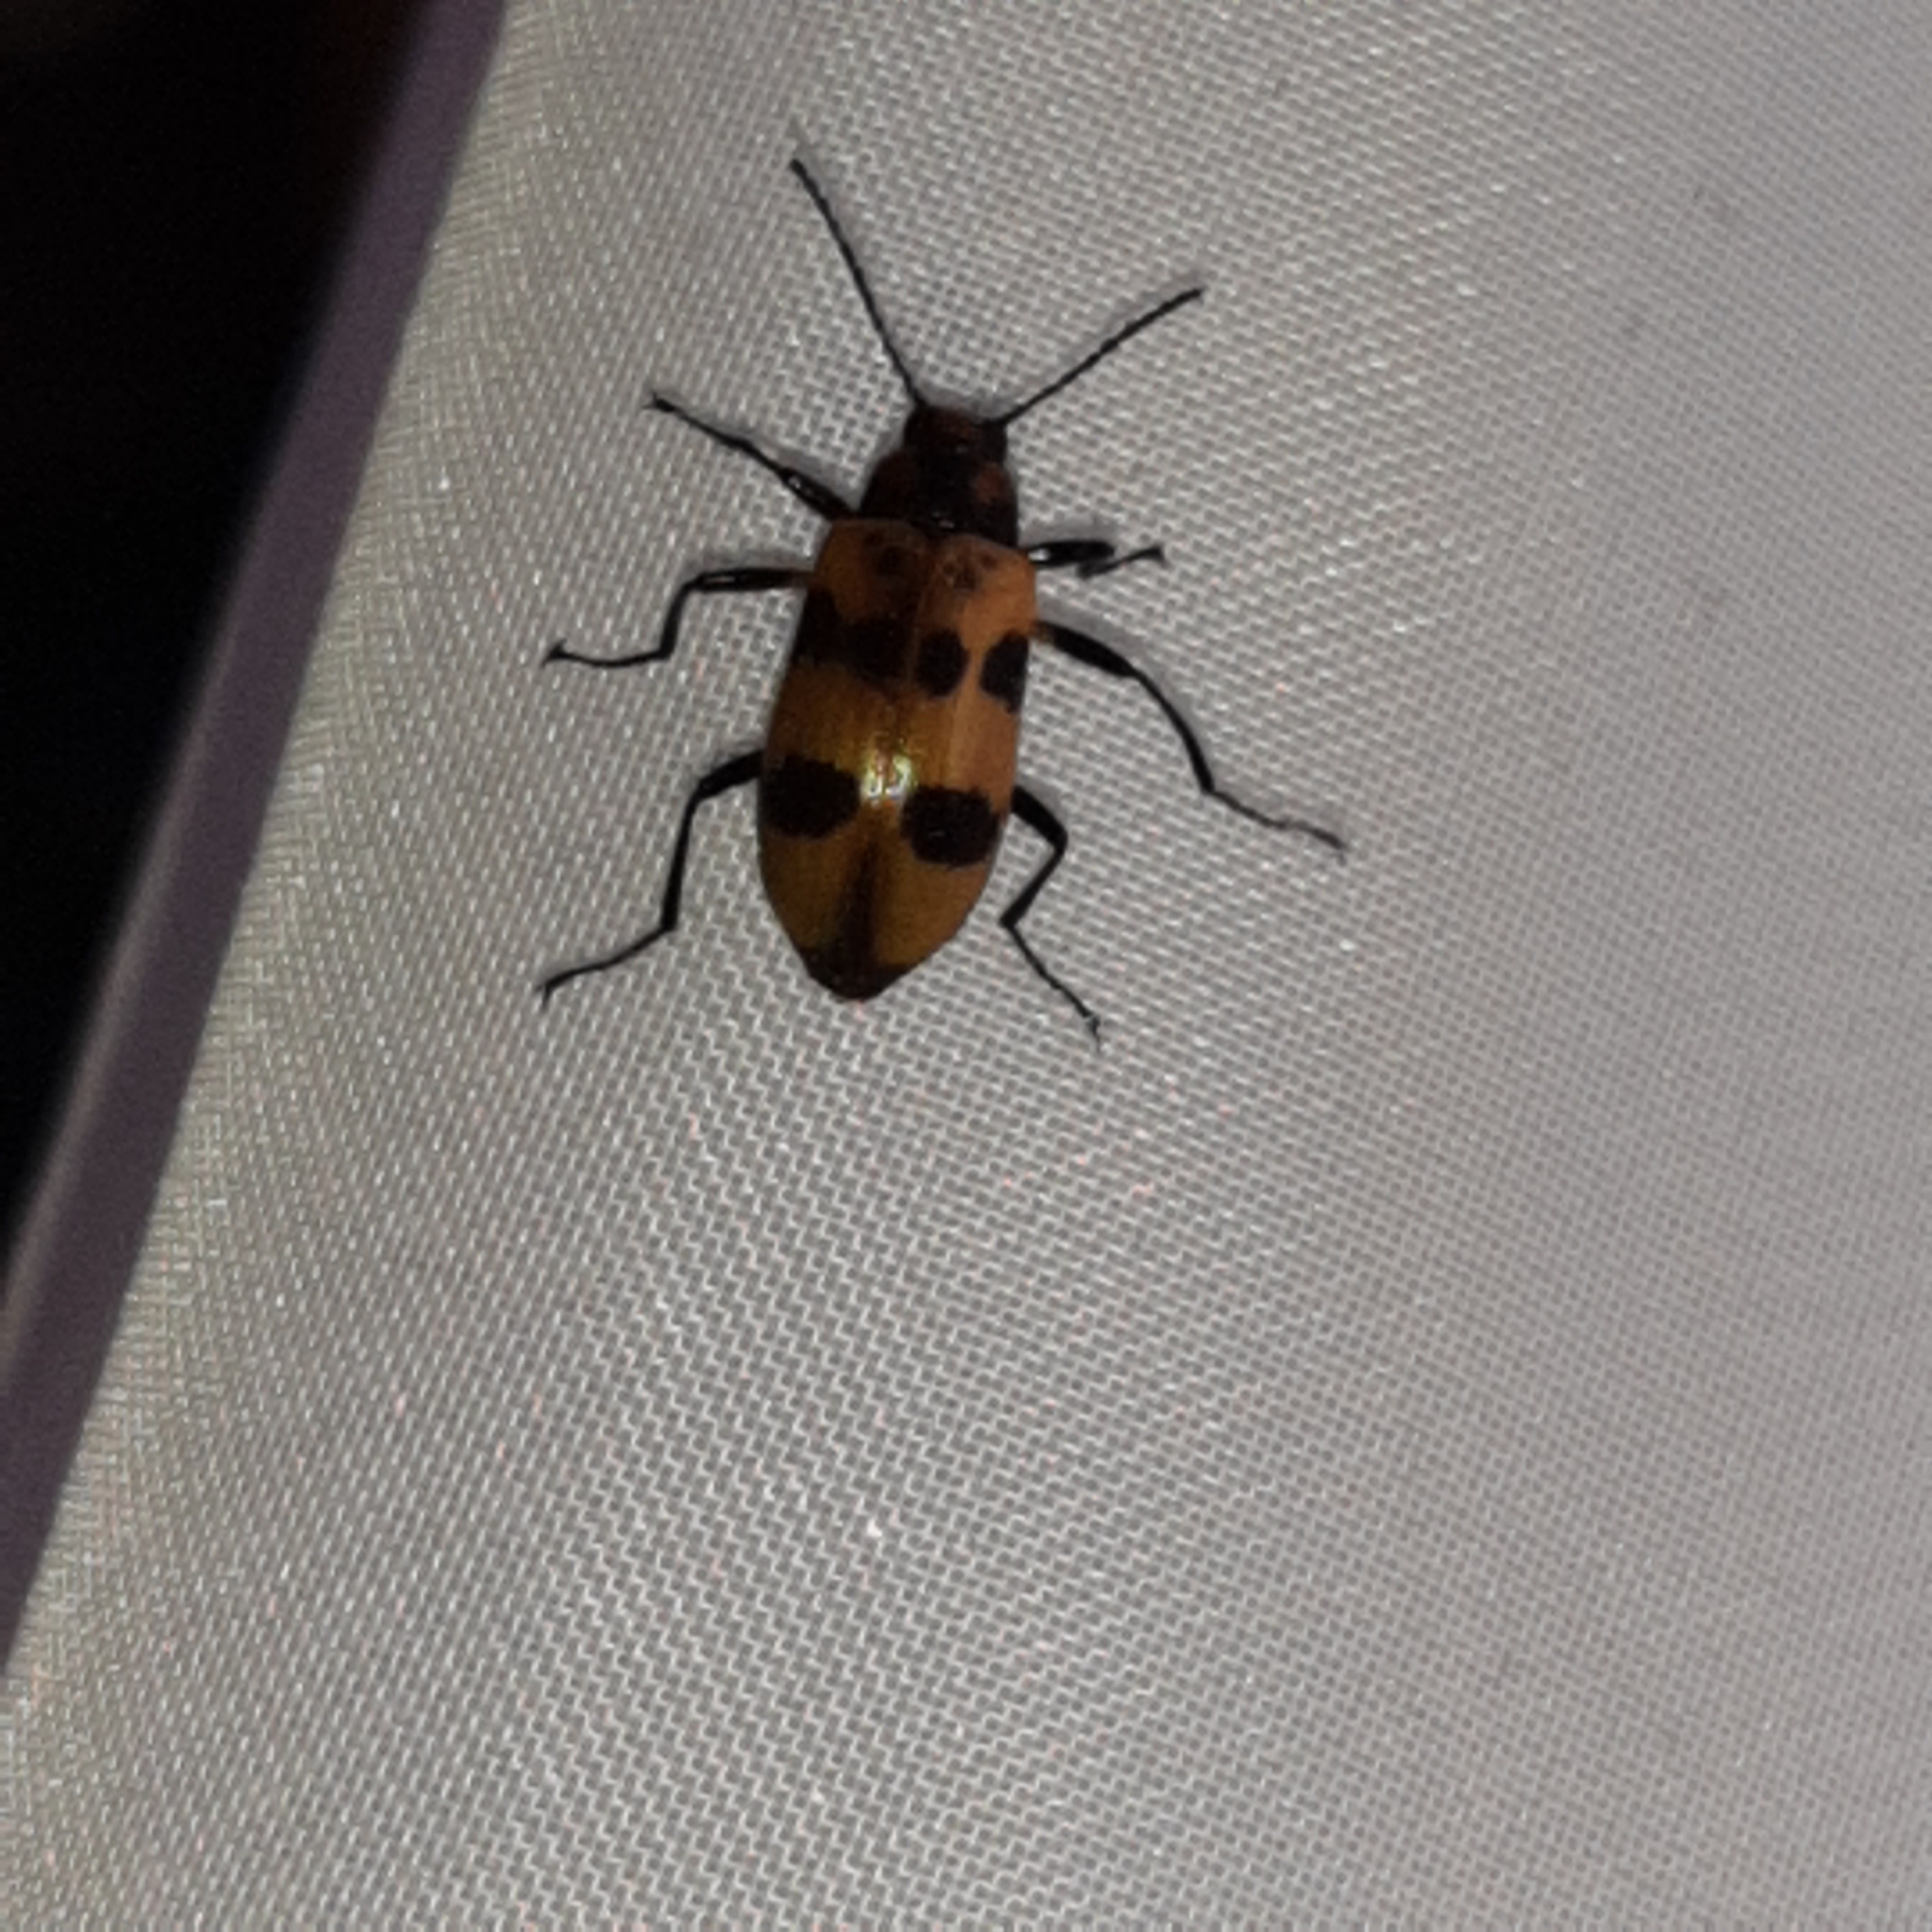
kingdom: Animalia
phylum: Arthropoda
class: Insecta
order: Coleoptera
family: Tenebrionidae
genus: Strongylium
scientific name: Strongylium maculicolle
